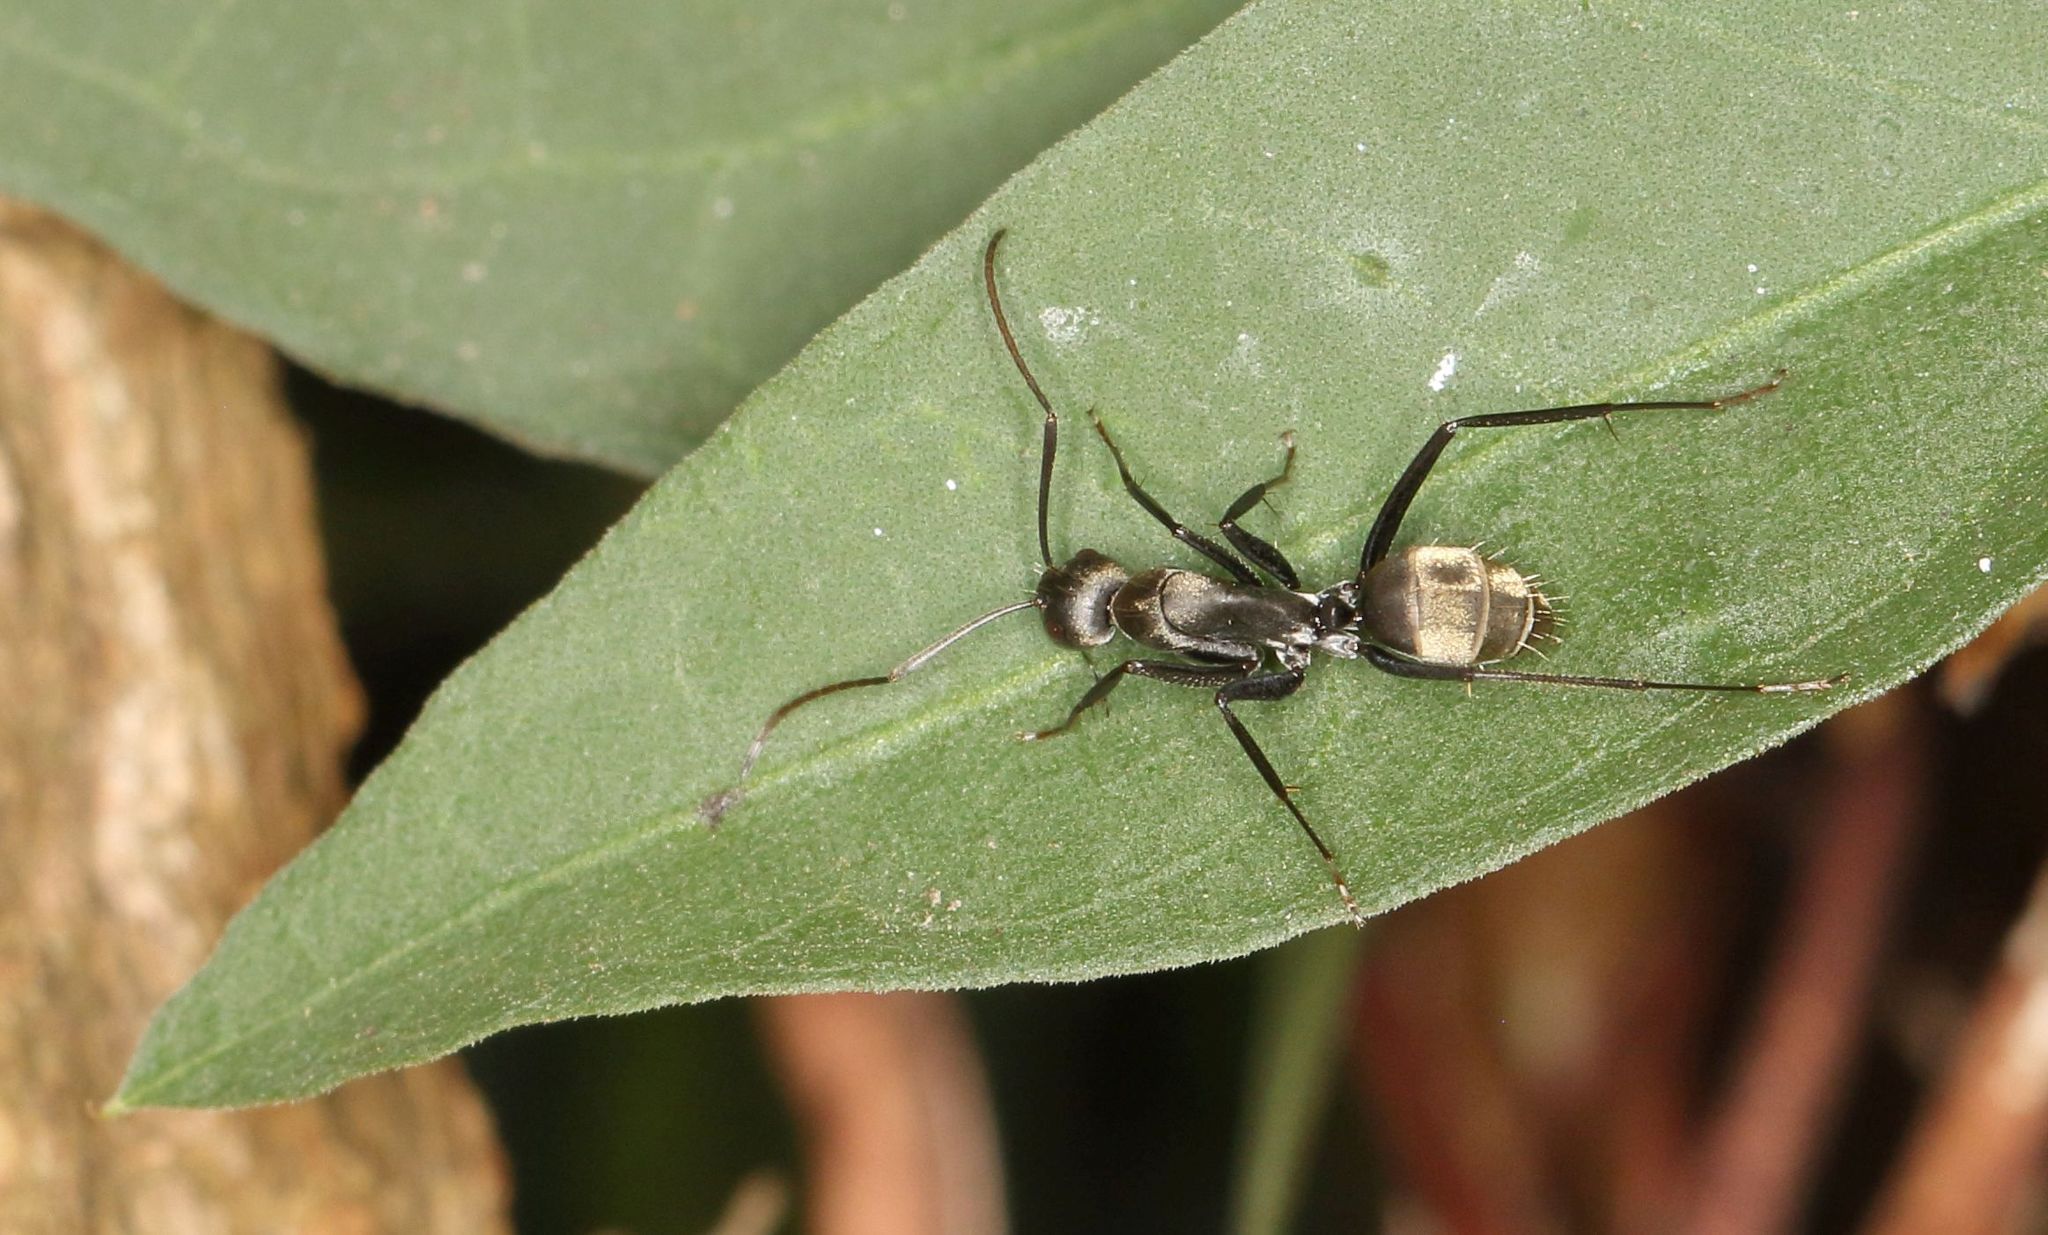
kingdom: Animalia
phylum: Arthropoda
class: Insecta
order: Hymenoptera
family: Formicidae
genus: Camponotus
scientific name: Camponotus cinctellus
